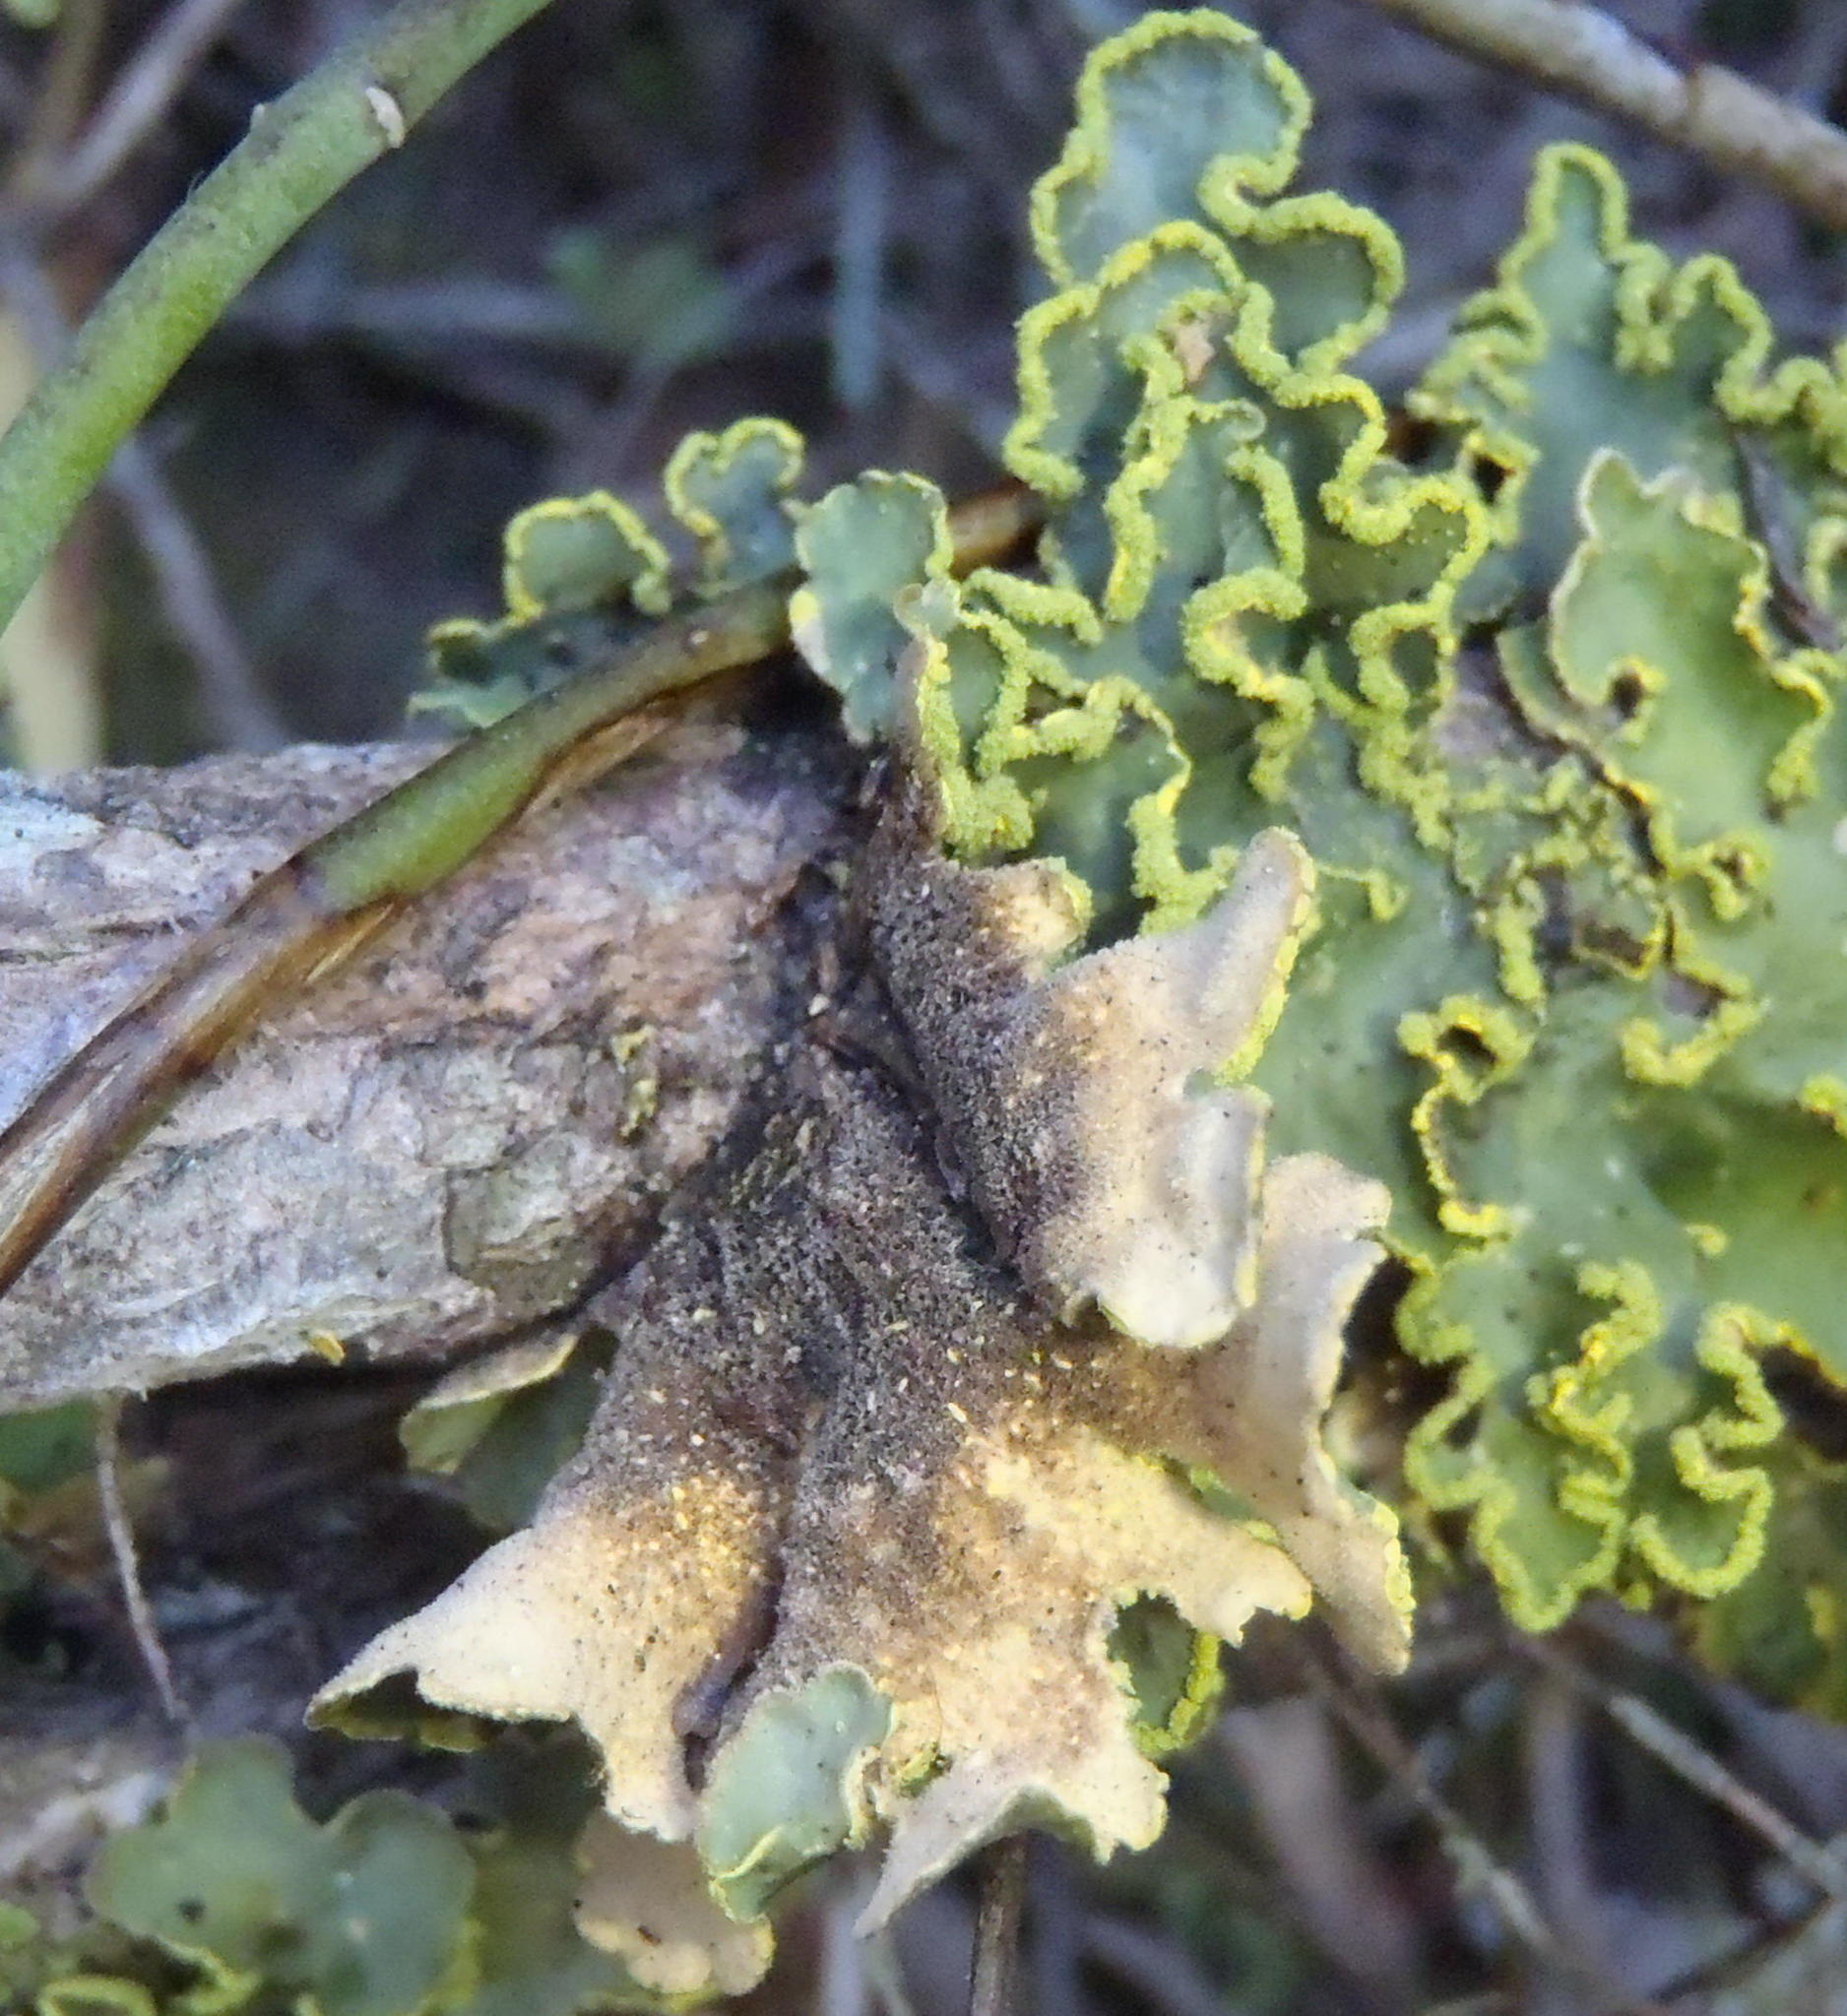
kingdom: Fungi
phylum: Ascomycota
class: Lecanoromycetes
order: Peltigerales
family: Lobariaceae
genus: Pseudocyphellaria
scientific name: Pseudocyphellaria aurata
